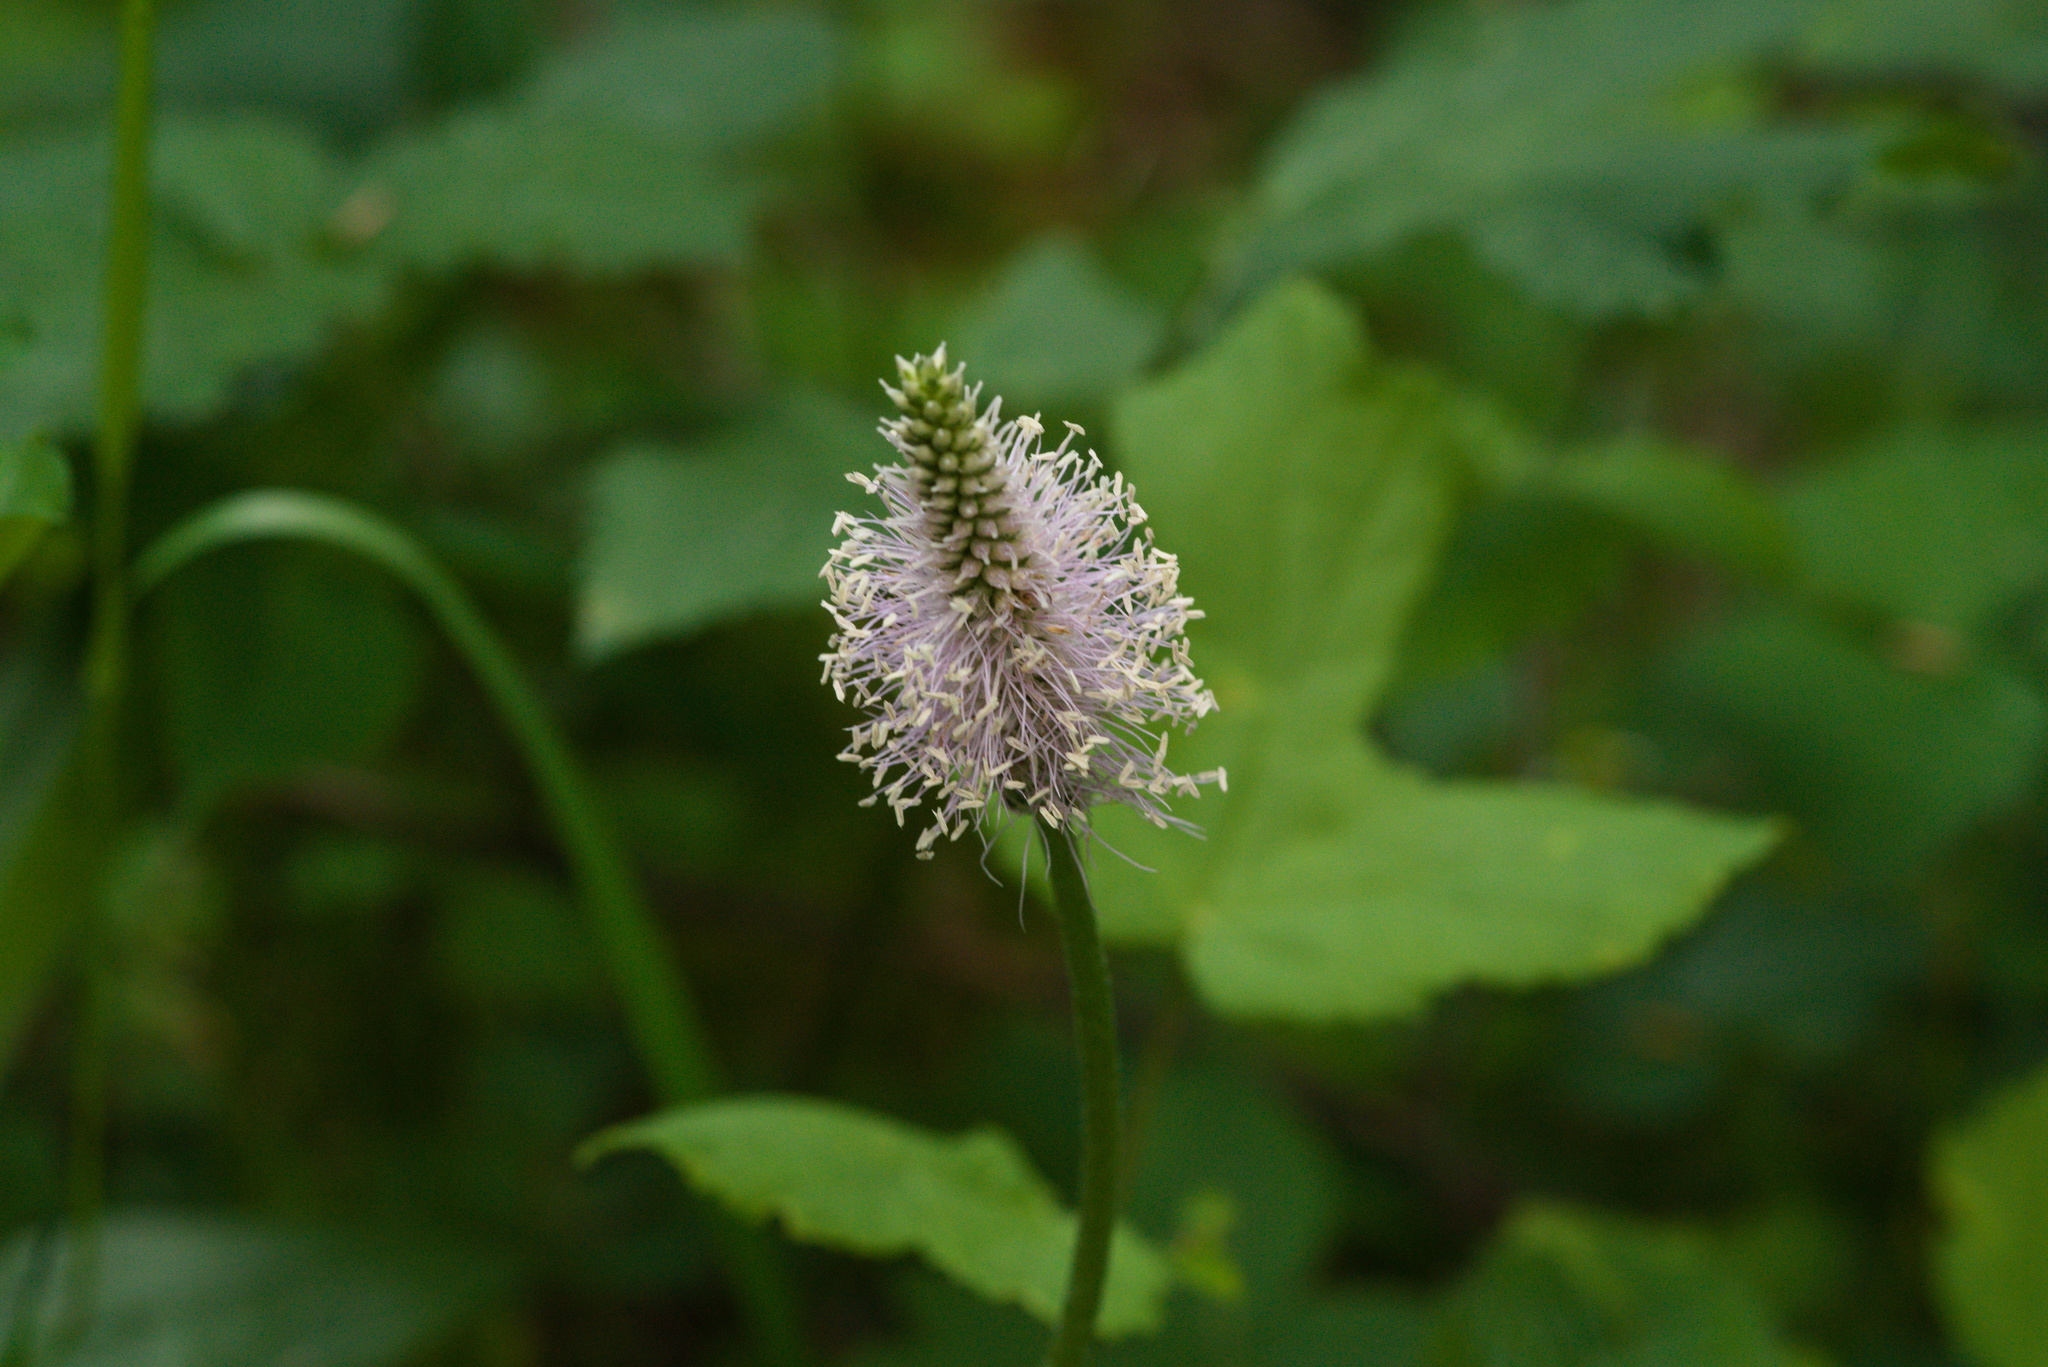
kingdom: Plantae
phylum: Tracheophyta
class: Magnoliopsida
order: Lamiales
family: Plantaginaceae
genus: Plantago
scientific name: Plantago media
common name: Hoary plantain
